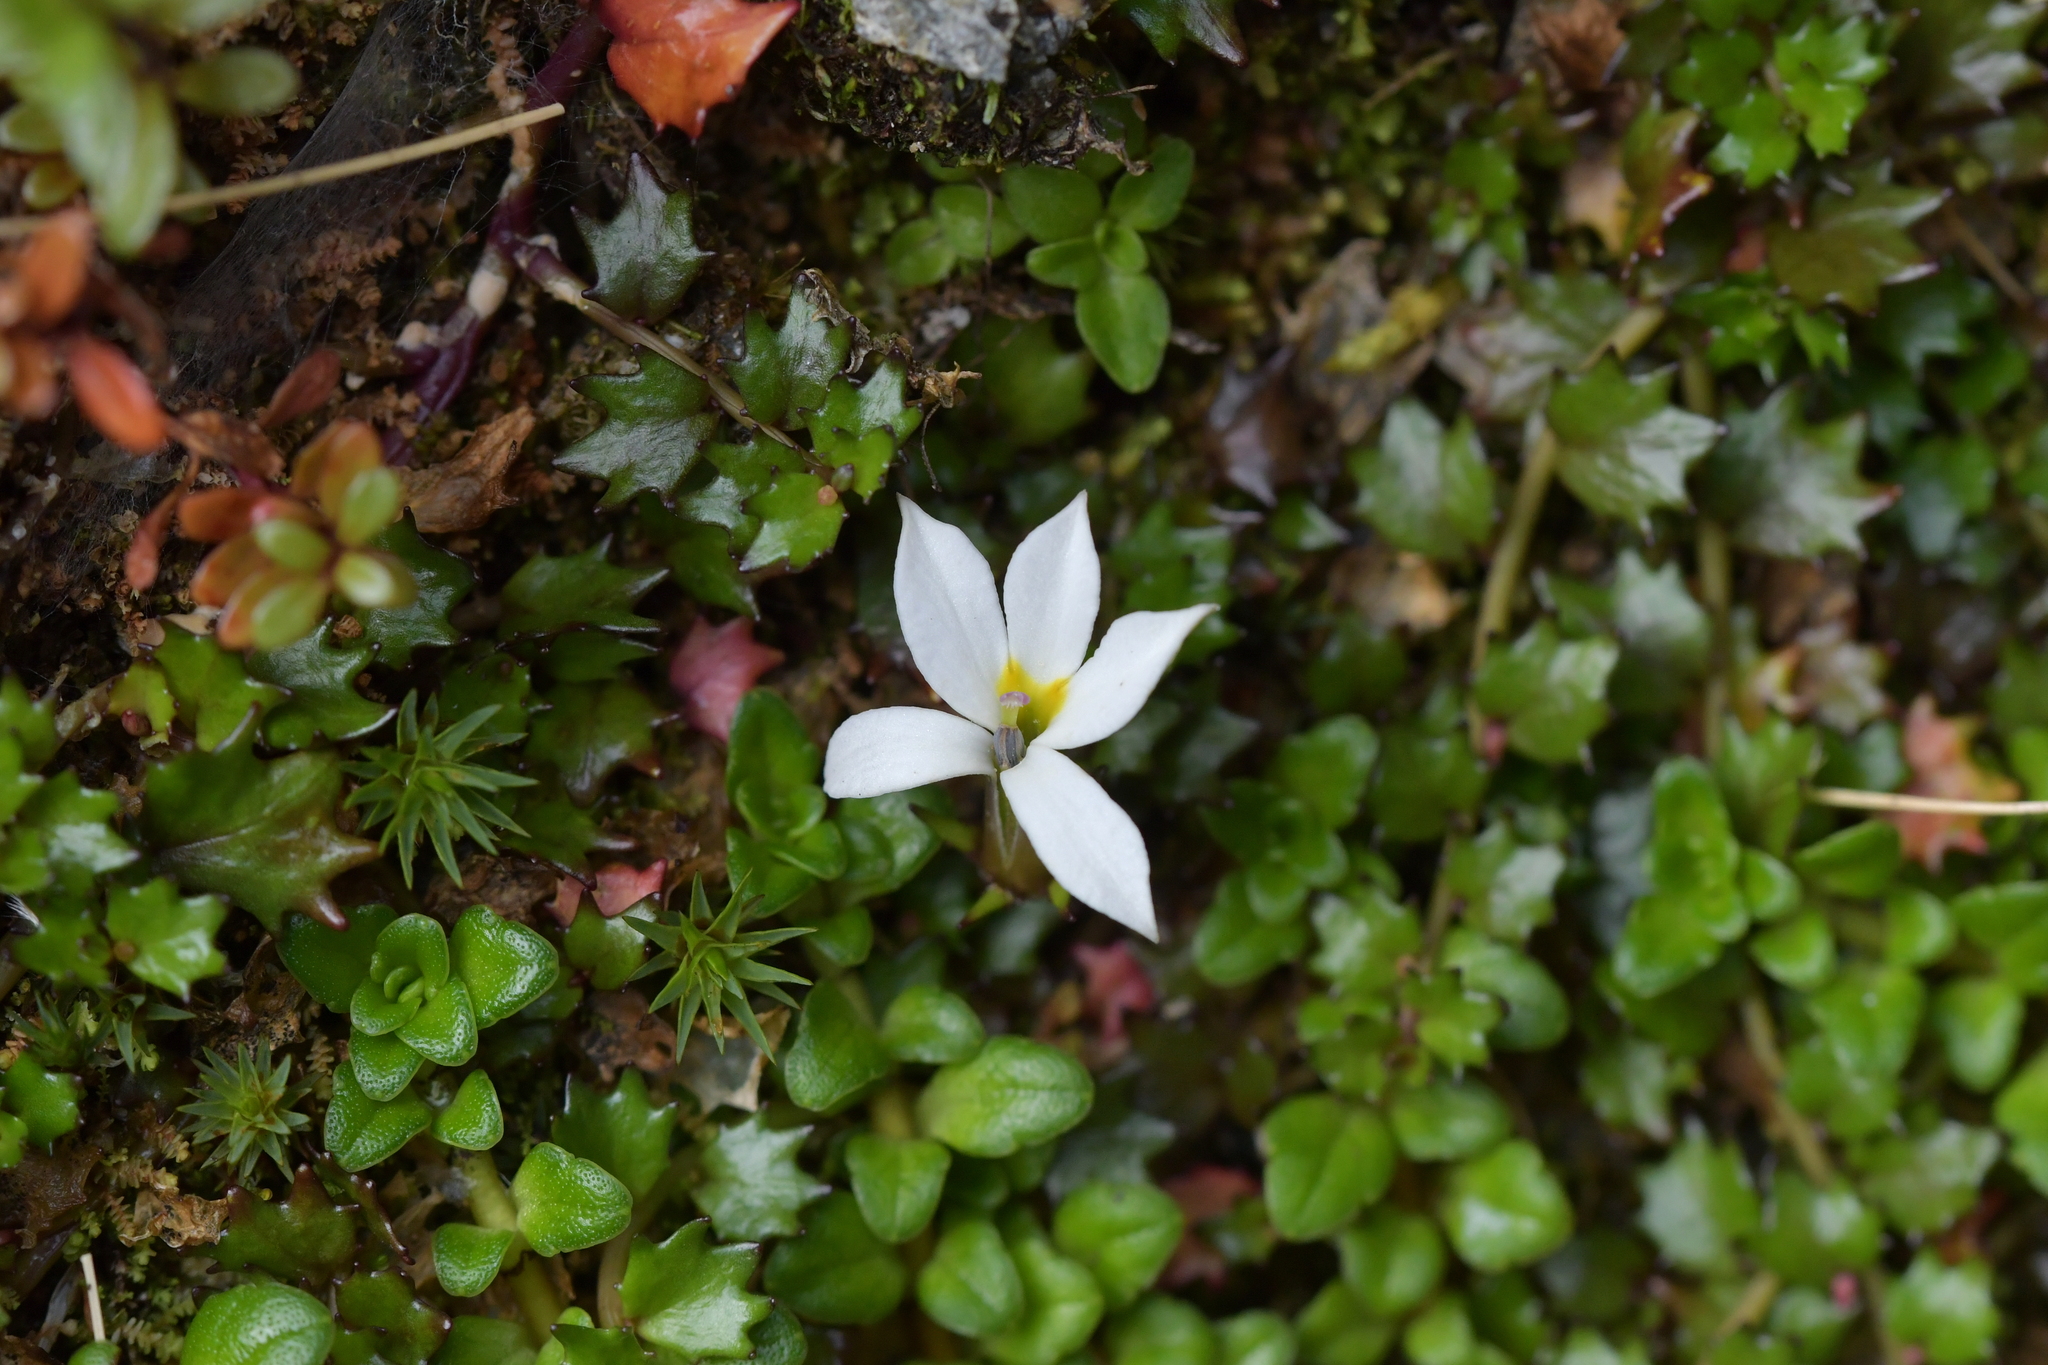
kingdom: Plantae
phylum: Tracheophyta
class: Magnoliopsida
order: Asterales
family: Campanulaceae
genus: Lobelia
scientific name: Lobelia angulata
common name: Lawn lobelia
